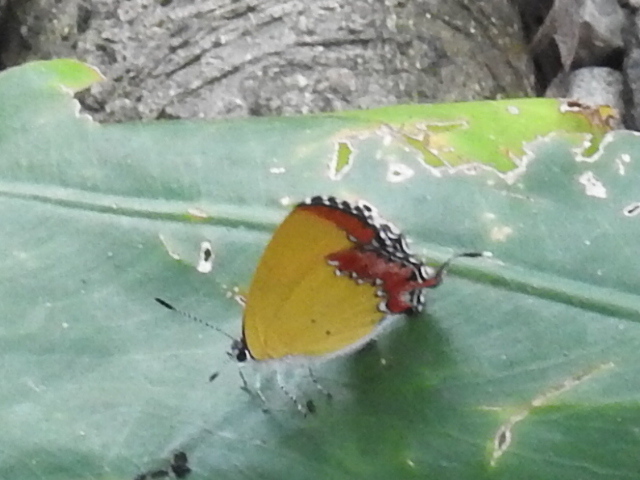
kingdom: Animalia
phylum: Arthropoda
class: Insecta
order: Lepidoptera
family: Lycaenidae
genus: Heliophorus
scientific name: Heliophorus epicles
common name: Purple sapphire
